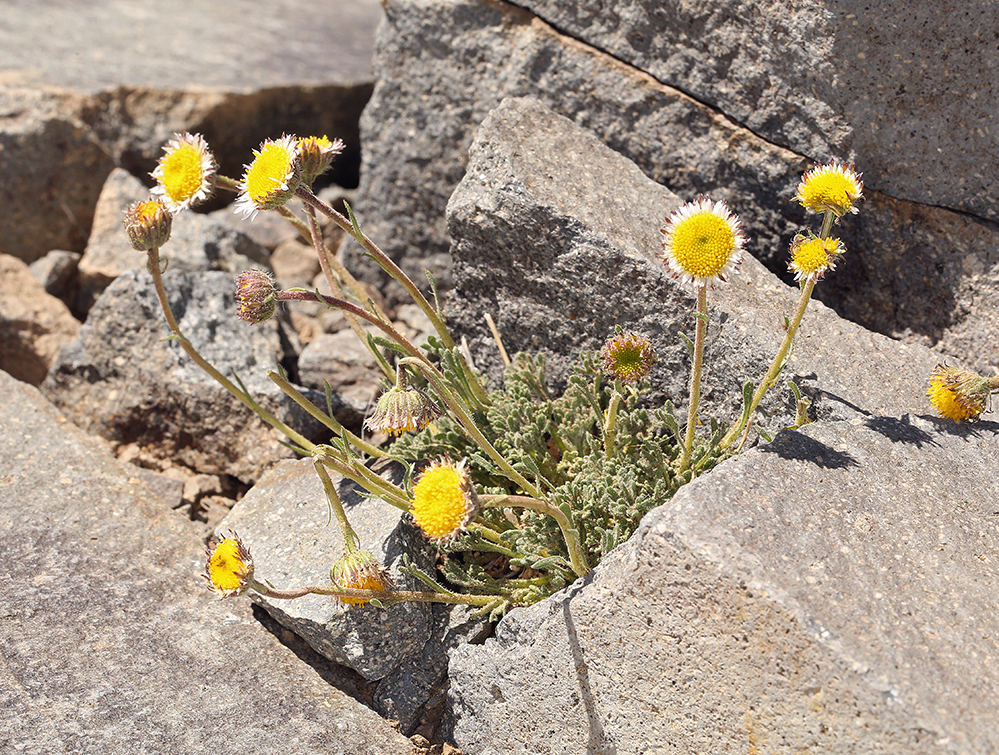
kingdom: Plantae
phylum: Tracheophyta
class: Magnoliopsida
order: Asterales
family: Asteraceae
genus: Erigeron
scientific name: Erigeron compositus
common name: Dwarf mountain fleabane
